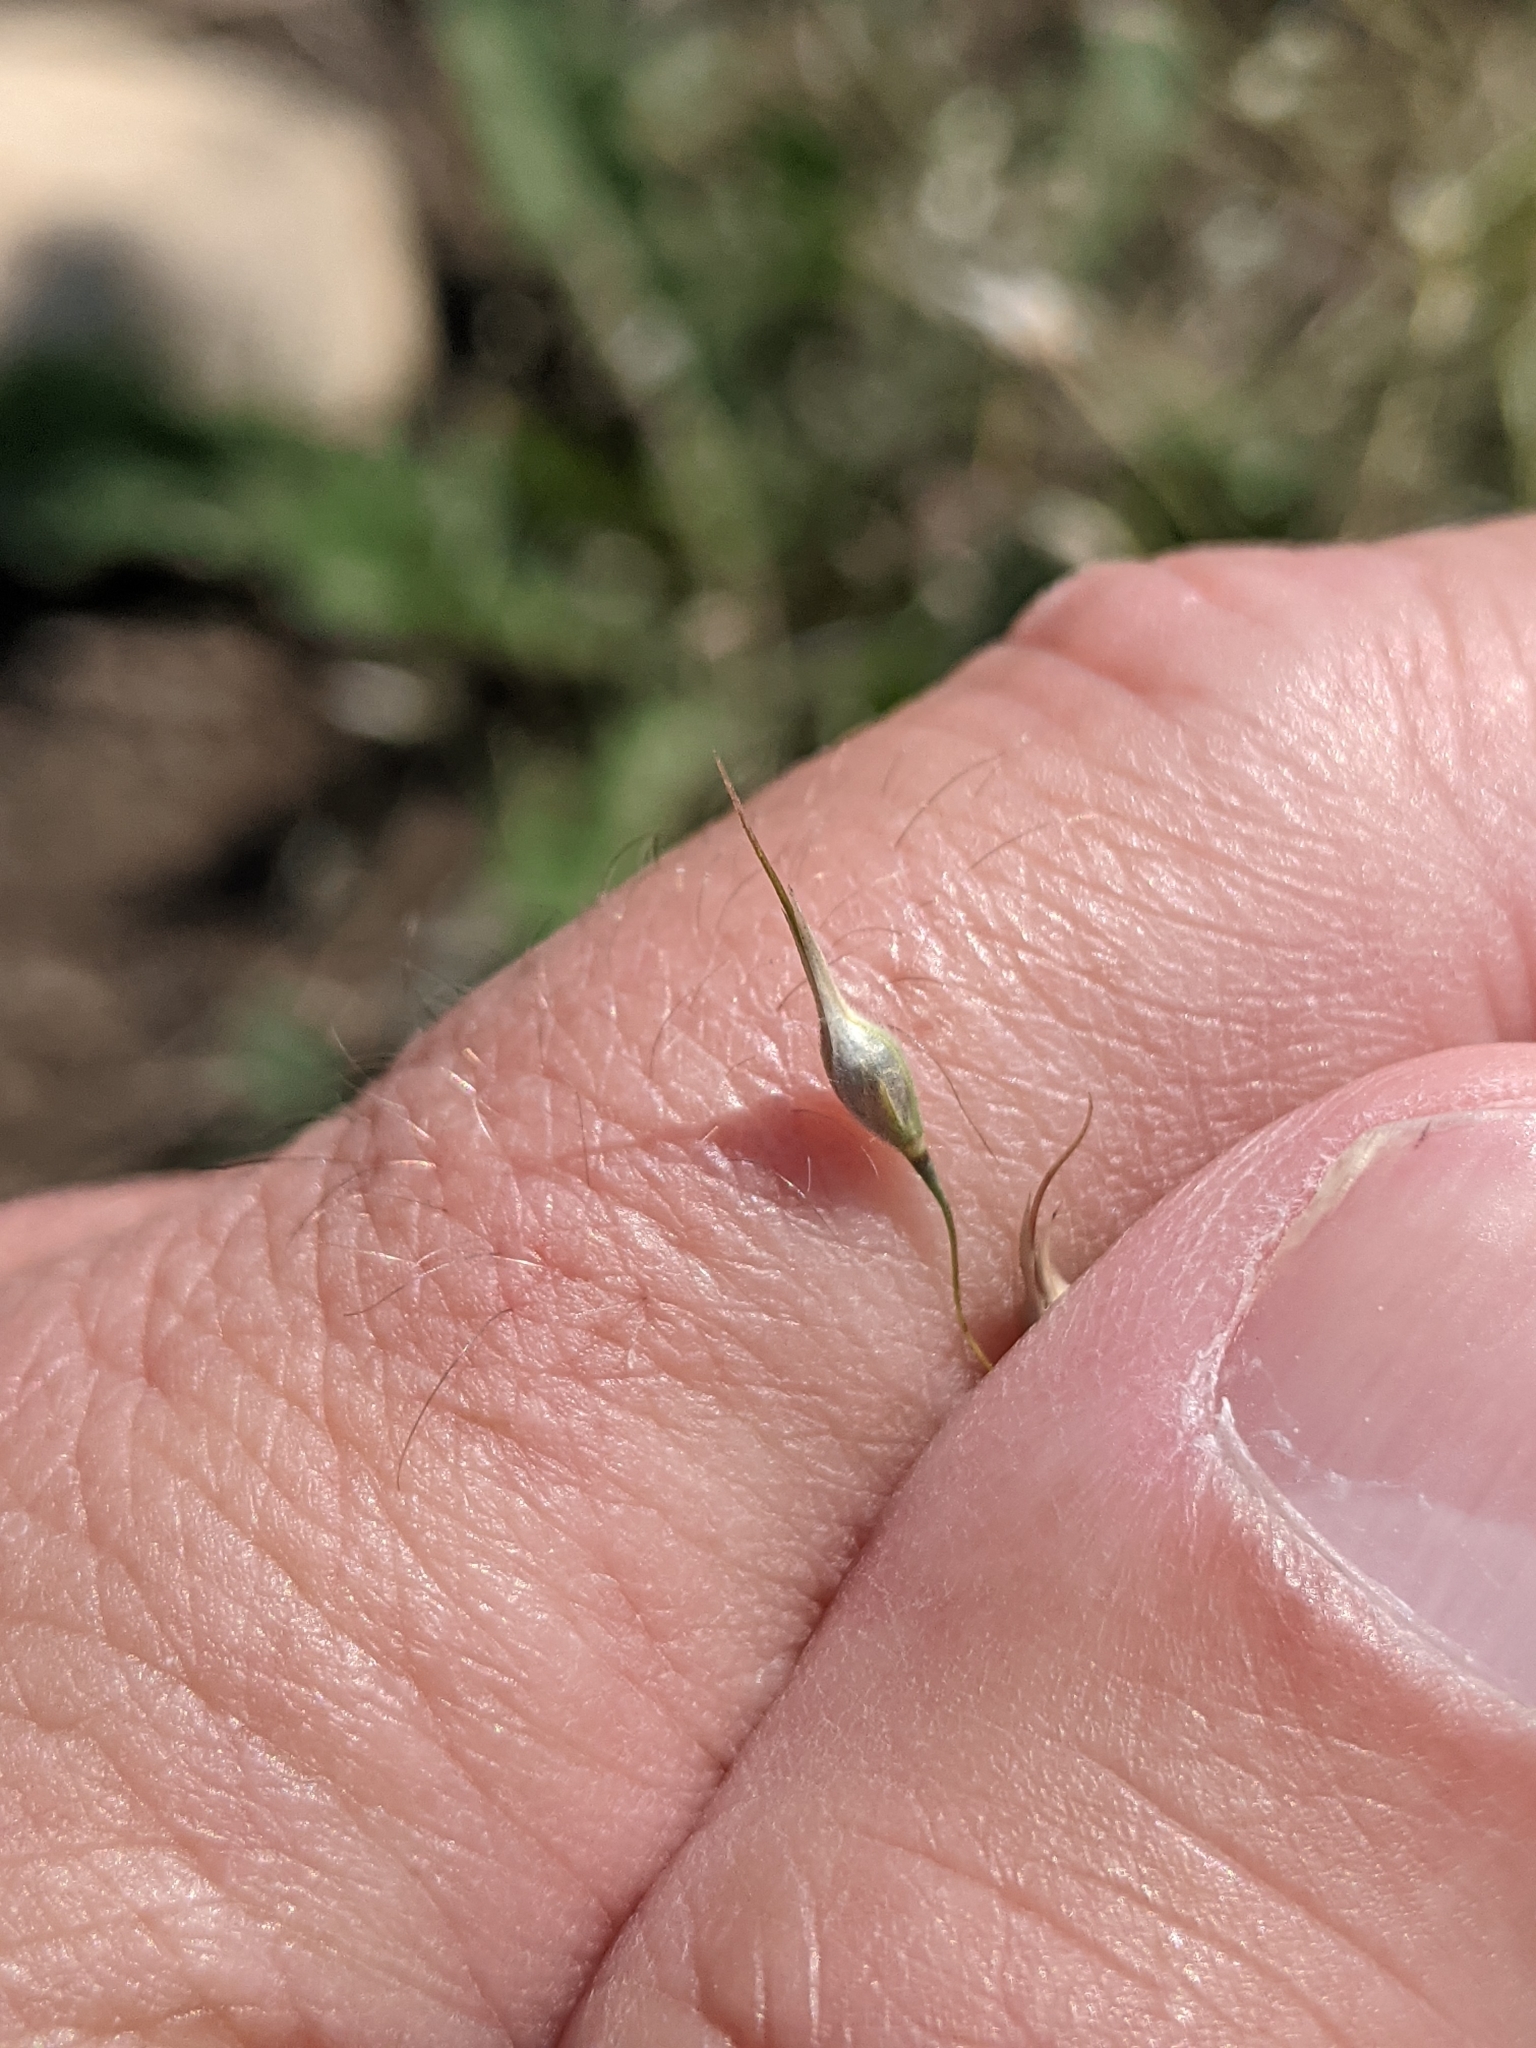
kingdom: Plantae
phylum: Tracheophyta
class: Liliopsida
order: Poales
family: Poaceae
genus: Eriocoma
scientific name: Eriocoma hymenoides
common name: Indian mountain ricegrass
